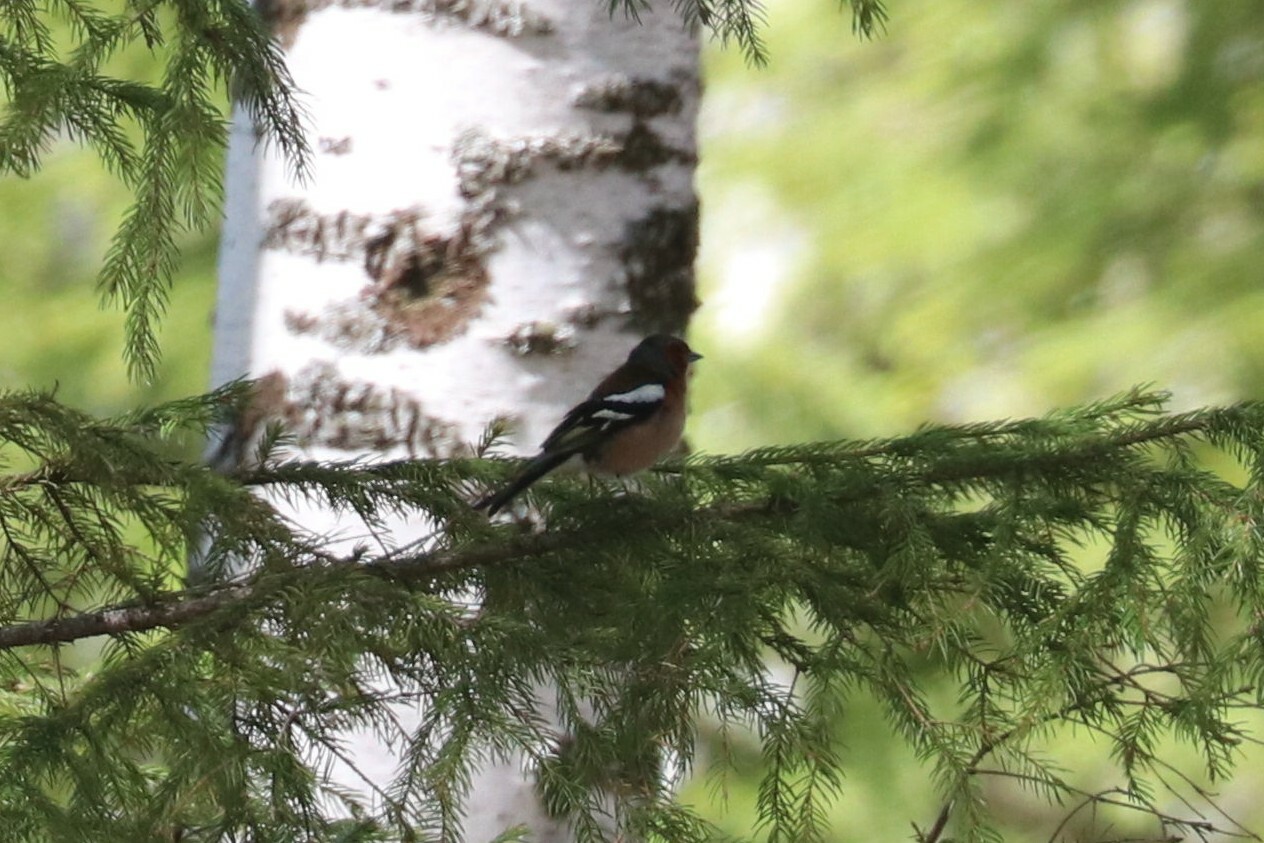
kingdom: Animalia
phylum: Chordata
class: Aves
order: Passeriformes
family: Fringillidae
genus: Fringilla
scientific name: Fringilla coelebs
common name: Common chaffinch
